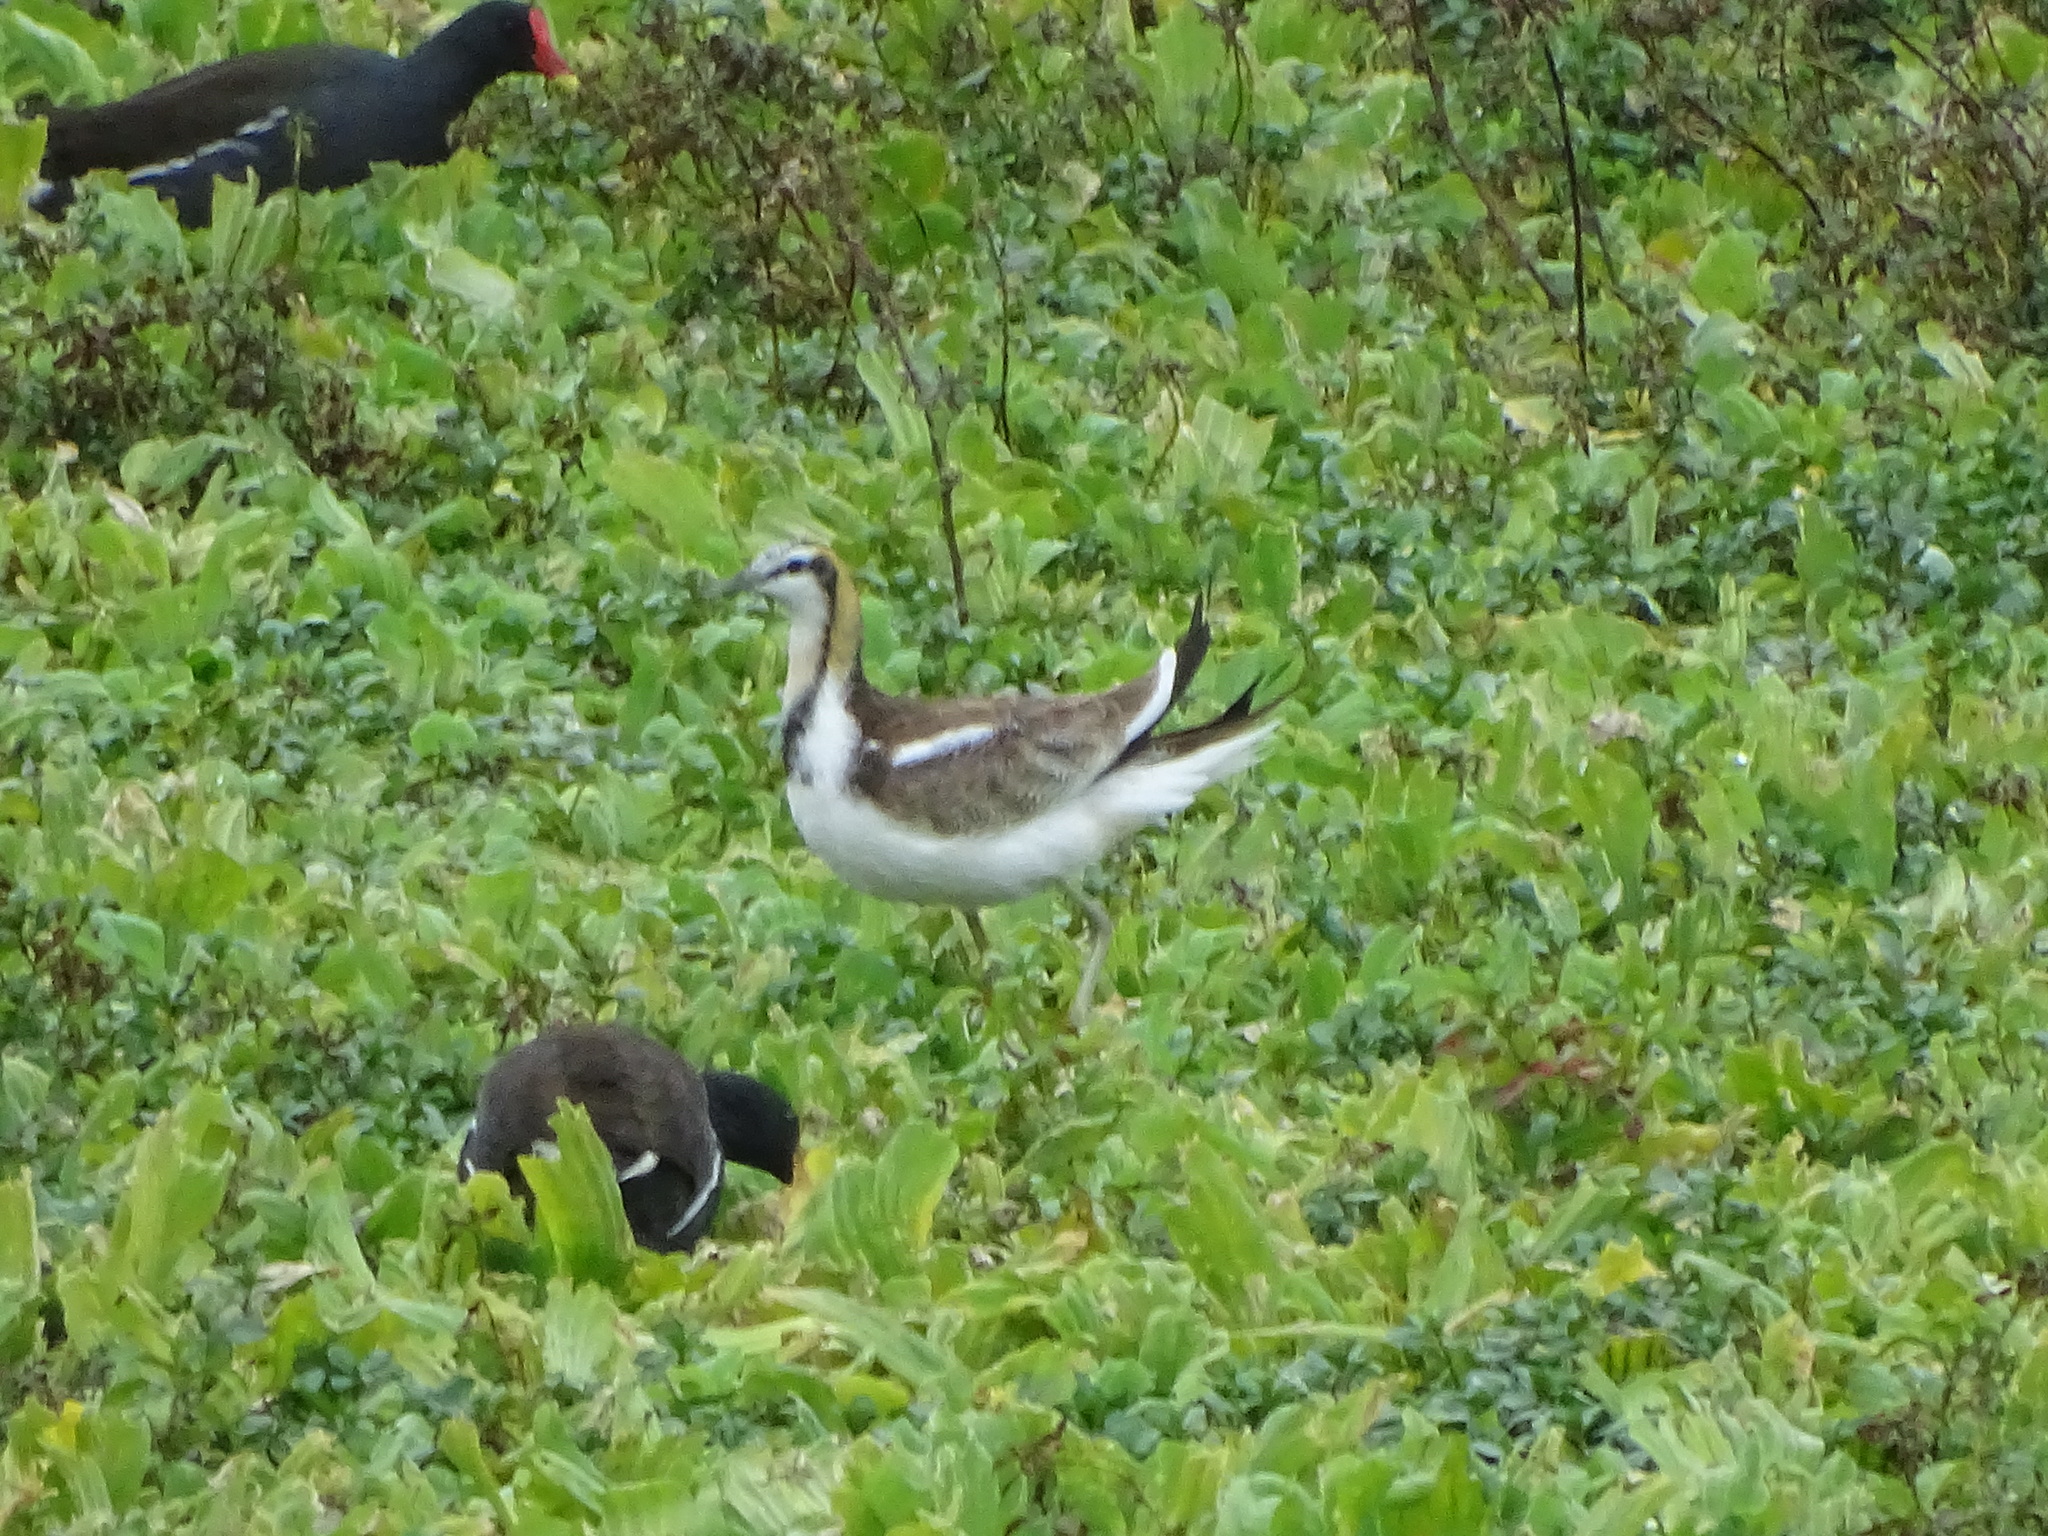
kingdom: Animalia
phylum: Chordata
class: Aves
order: Charadriiformes
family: Jacanidae
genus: Hydrophasianus
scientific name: Hydrophasianus chirurgus
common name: Pheasant-tailed jacana
